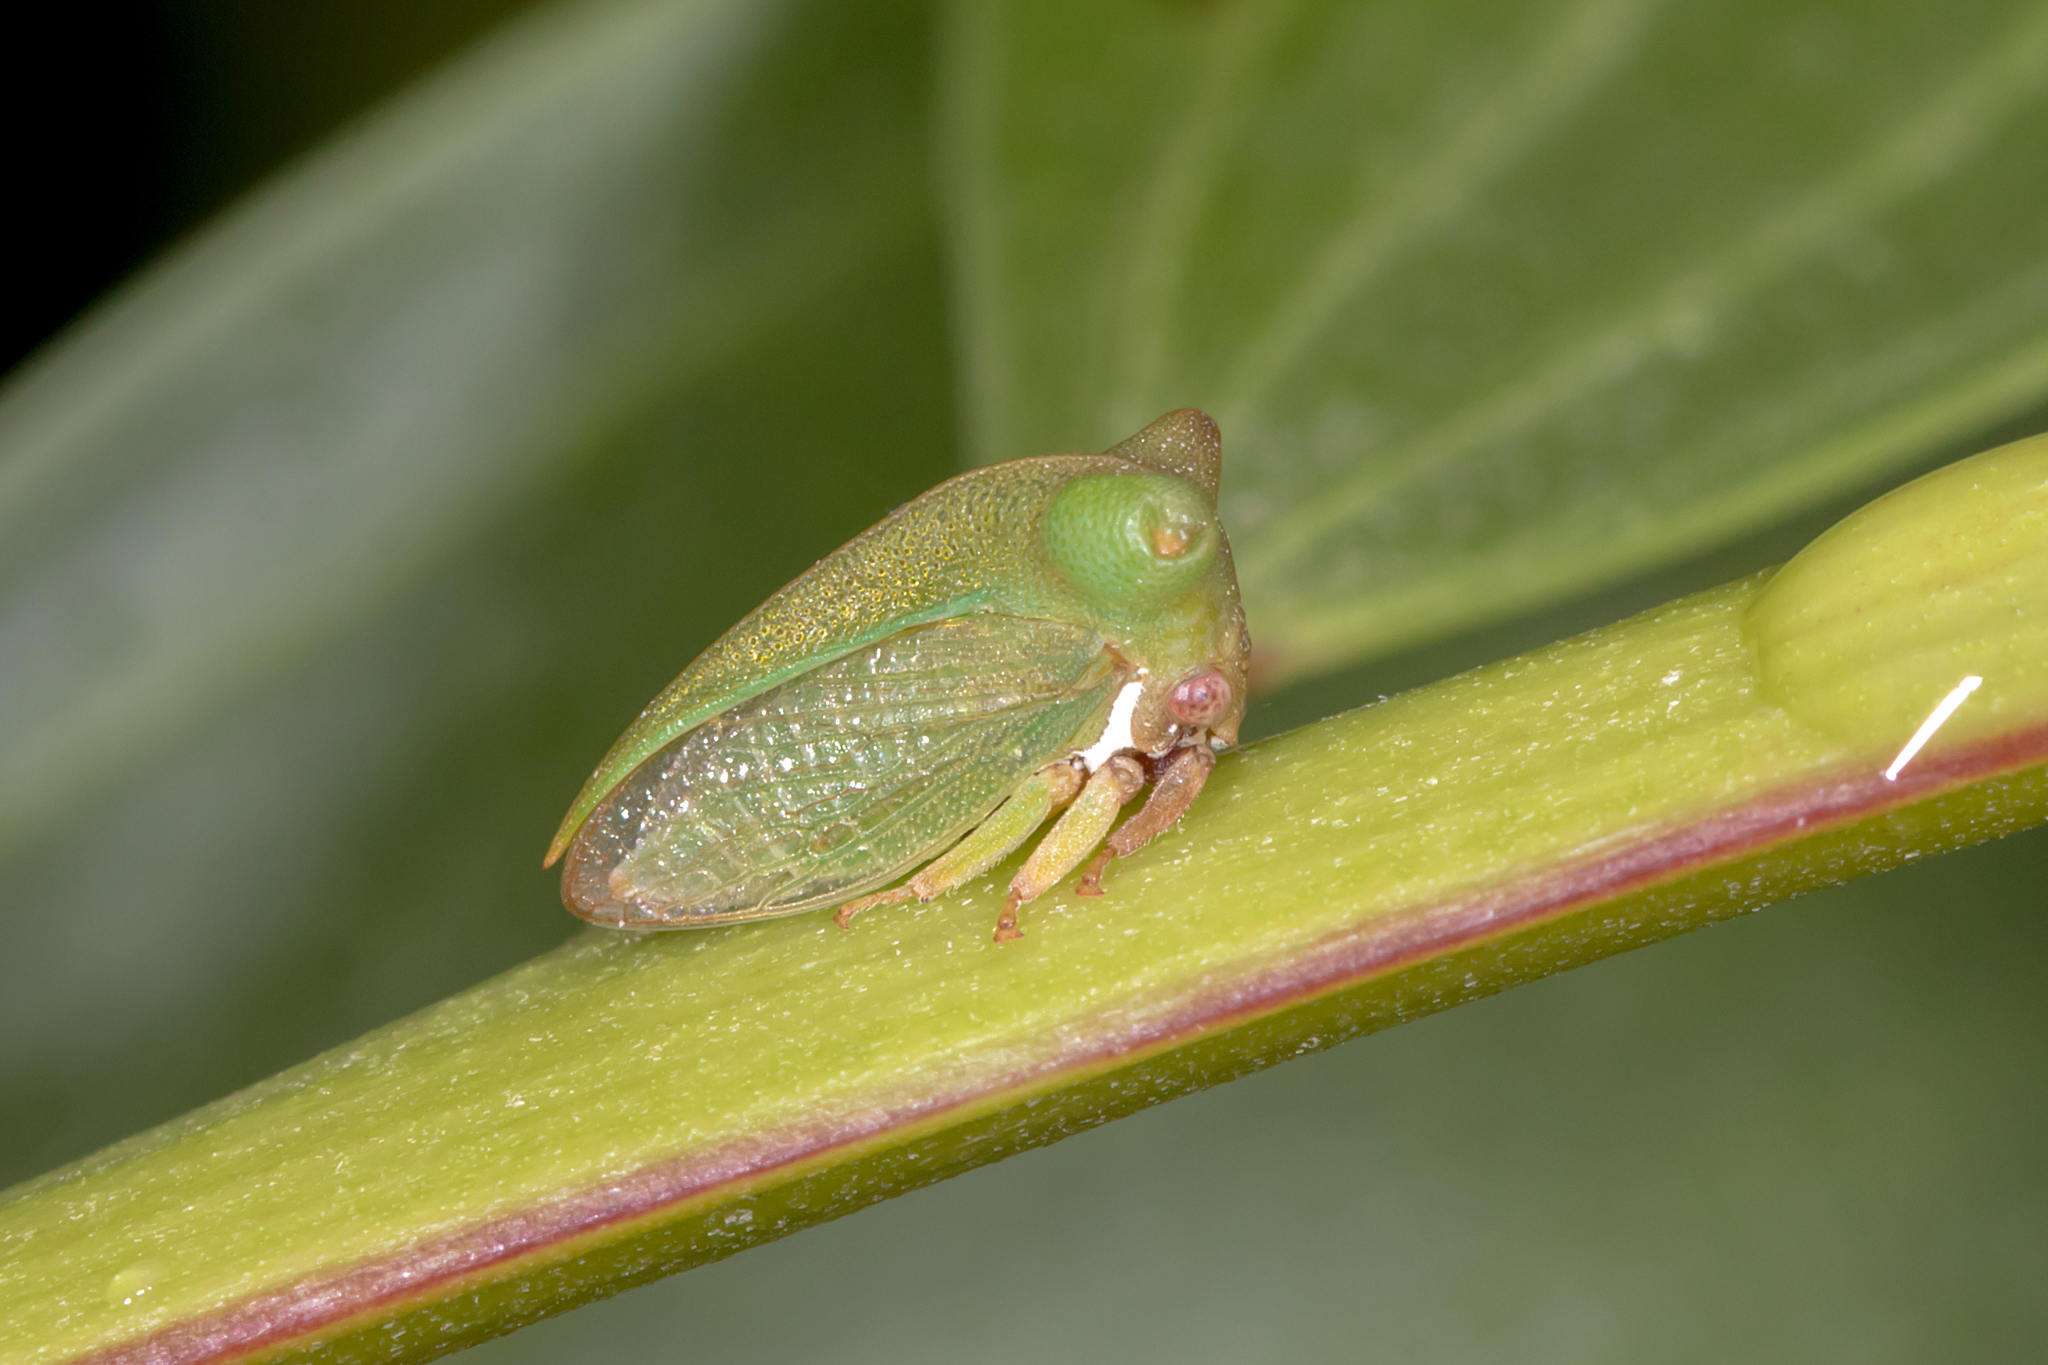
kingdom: Animalia
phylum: Arthropoda
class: Insecta
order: Hemiptera
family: Membracidae
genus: Sextius
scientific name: Sextius virescens
